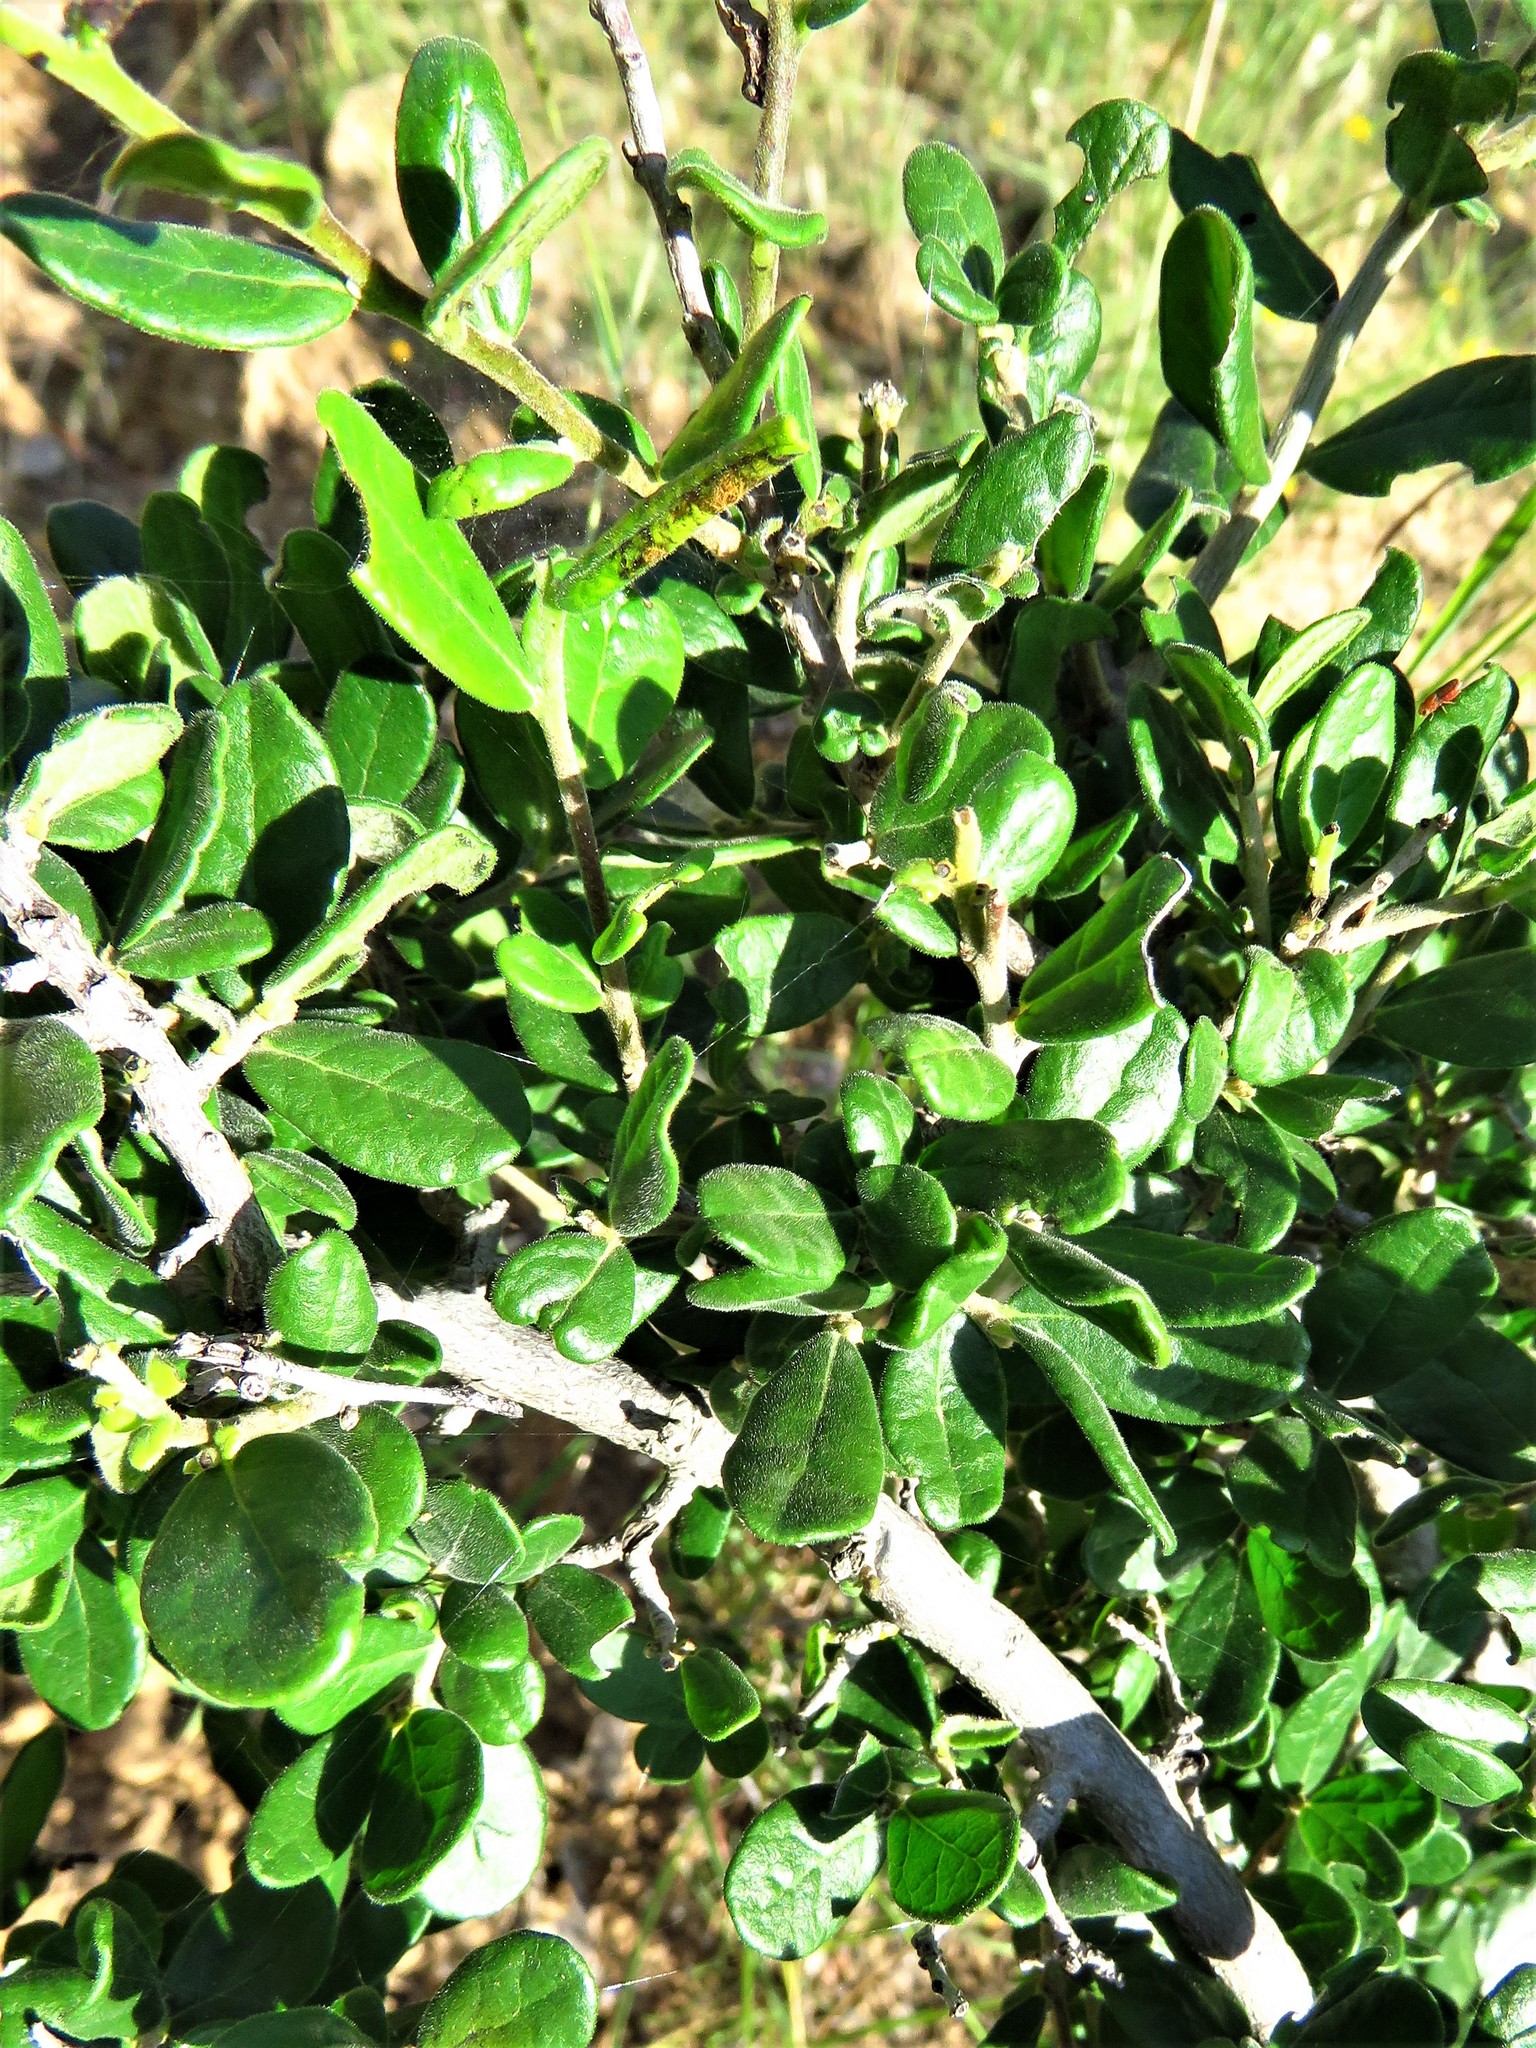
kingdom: Plantae
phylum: Tracheophyta
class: Magnoliopsida
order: Ericales
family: Ebenaceae
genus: Diospyros
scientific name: Diospyros texana
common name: Texas persimmon
